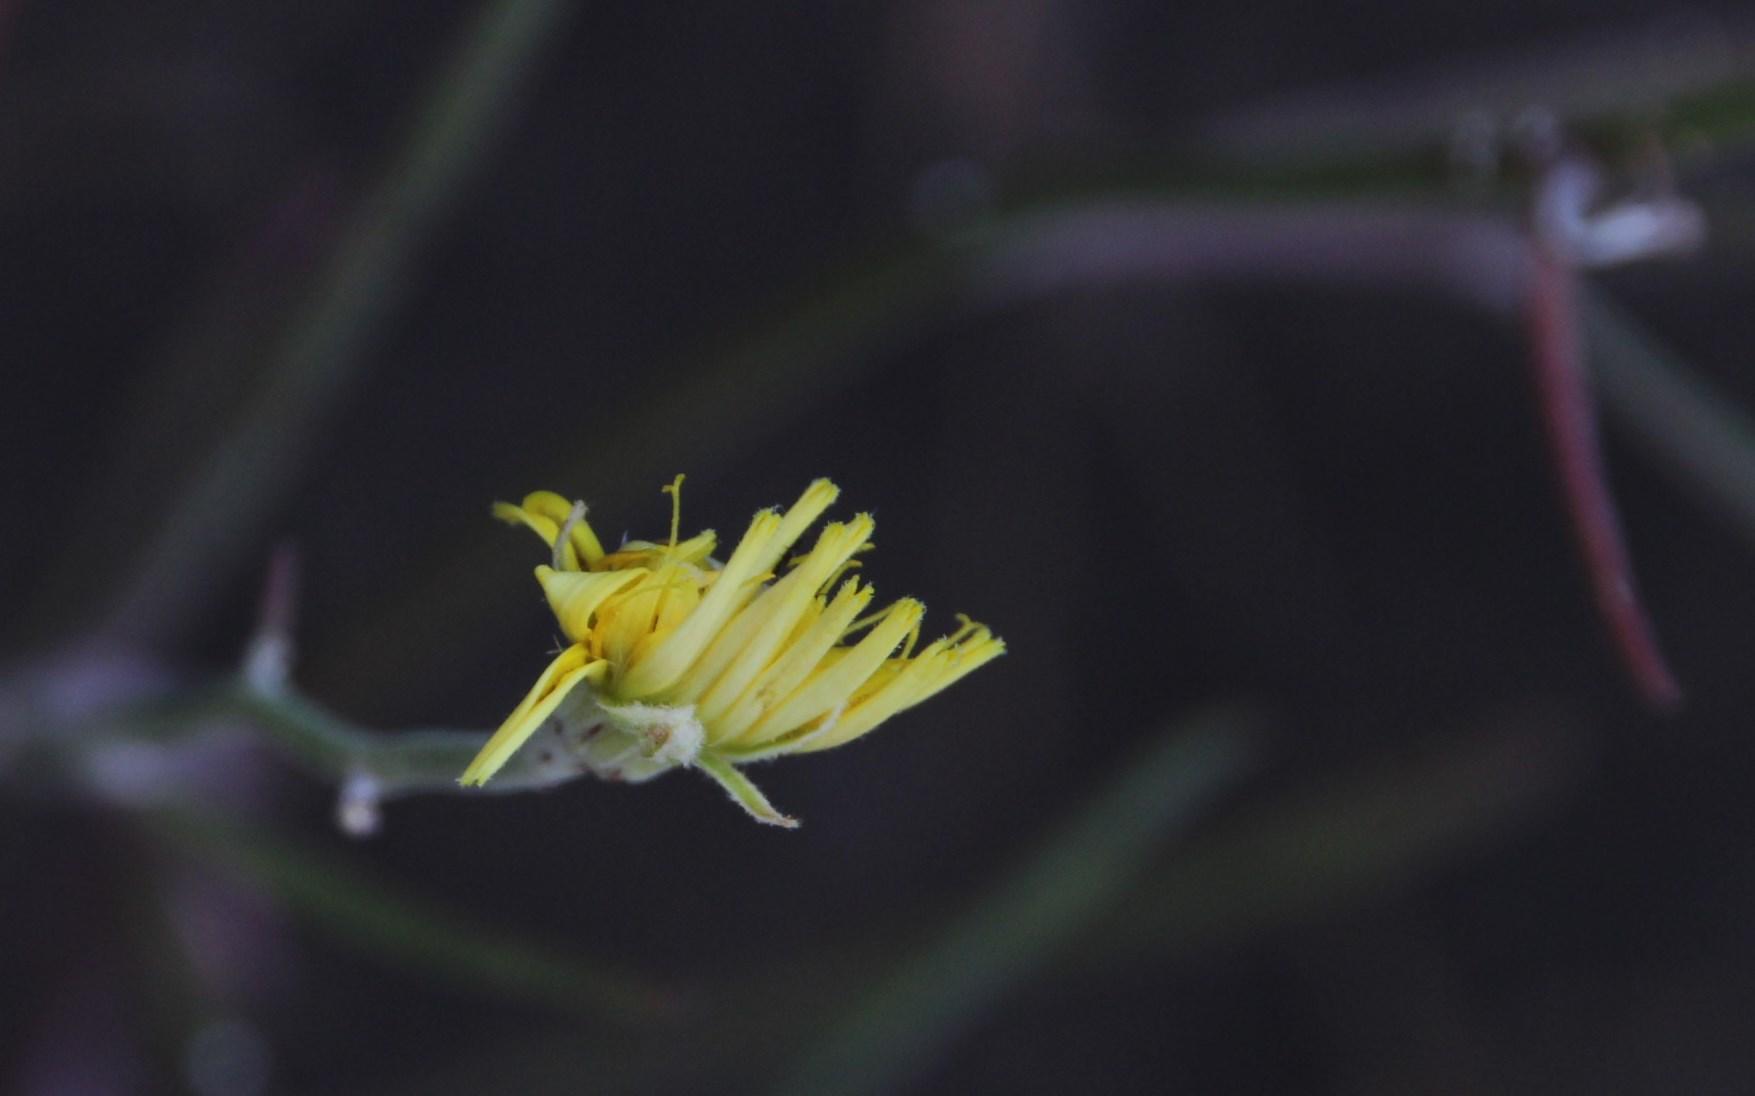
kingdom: Plantae
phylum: Tracheophyta
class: Magnoliopsida
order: Asterales
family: Asteraceae
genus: Tolpis
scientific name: Tolpis succulenta
